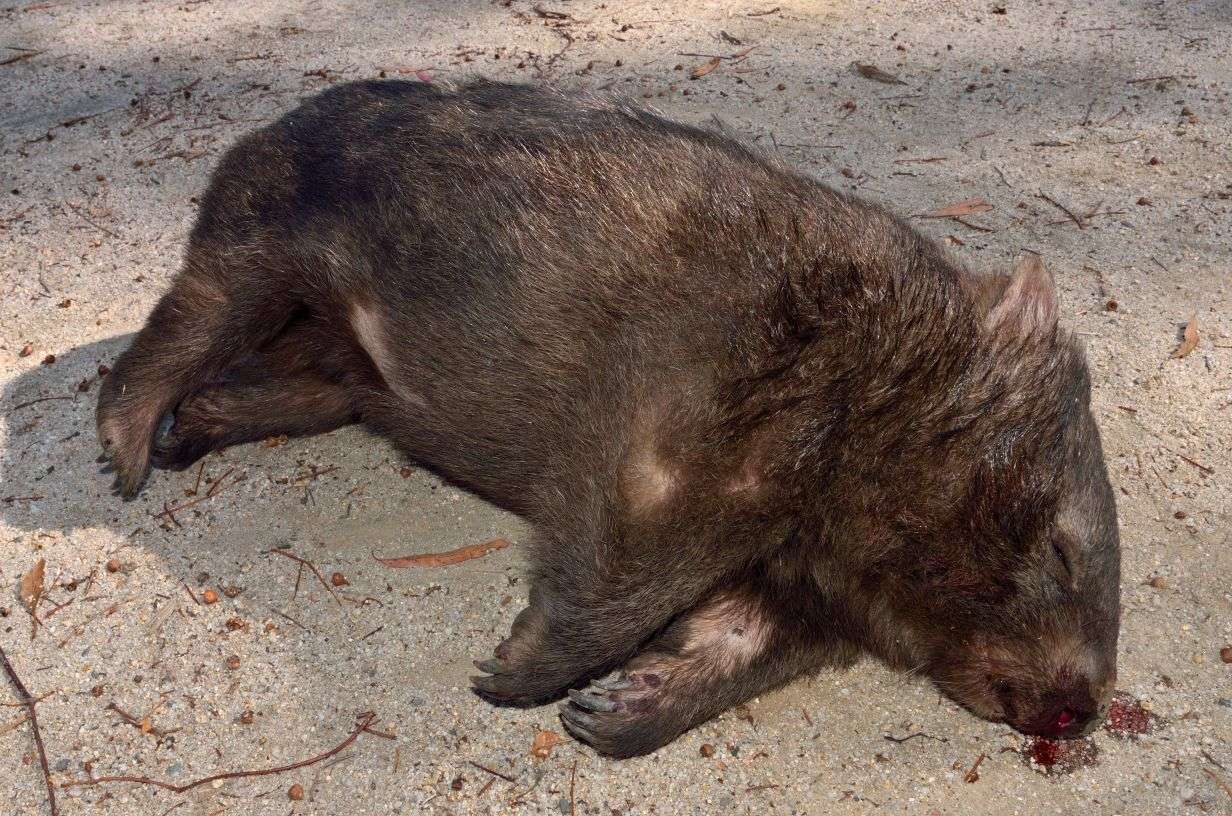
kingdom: Animalia
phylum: Chordata
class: Mammalia
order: Diprotodontia
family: Vombatidae
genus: Vombatus
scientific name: Vombatus ursinus
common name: Common wombat
